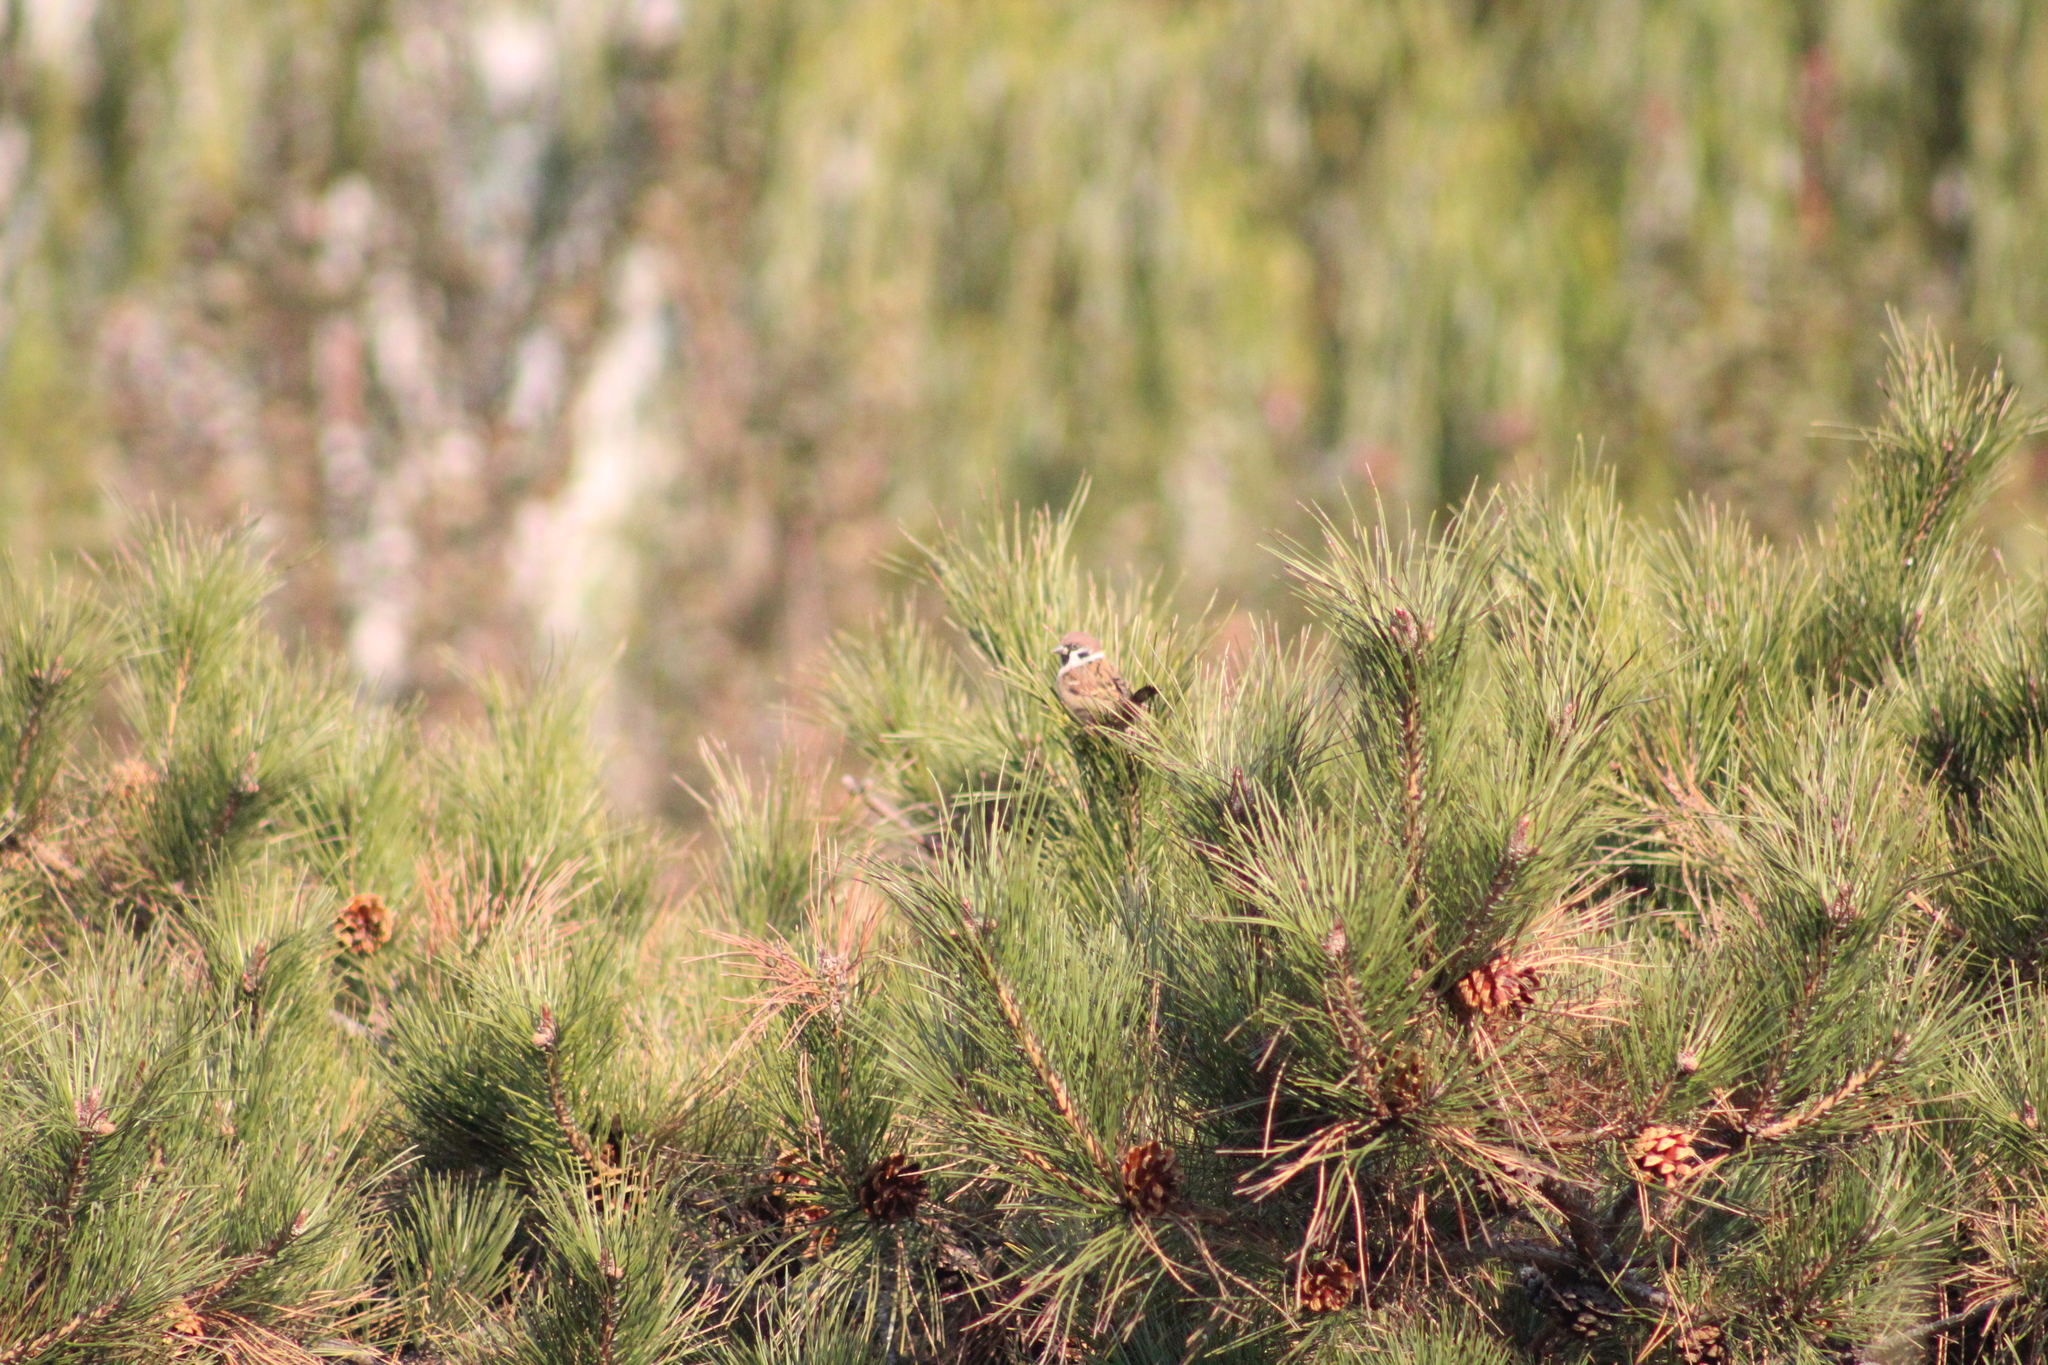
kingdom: Animalia
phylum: Chordata
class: Aves
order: Passeriformes
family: Passeridae
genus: Passer
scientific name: Passer montanus
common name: Eurasian tree sparrow
